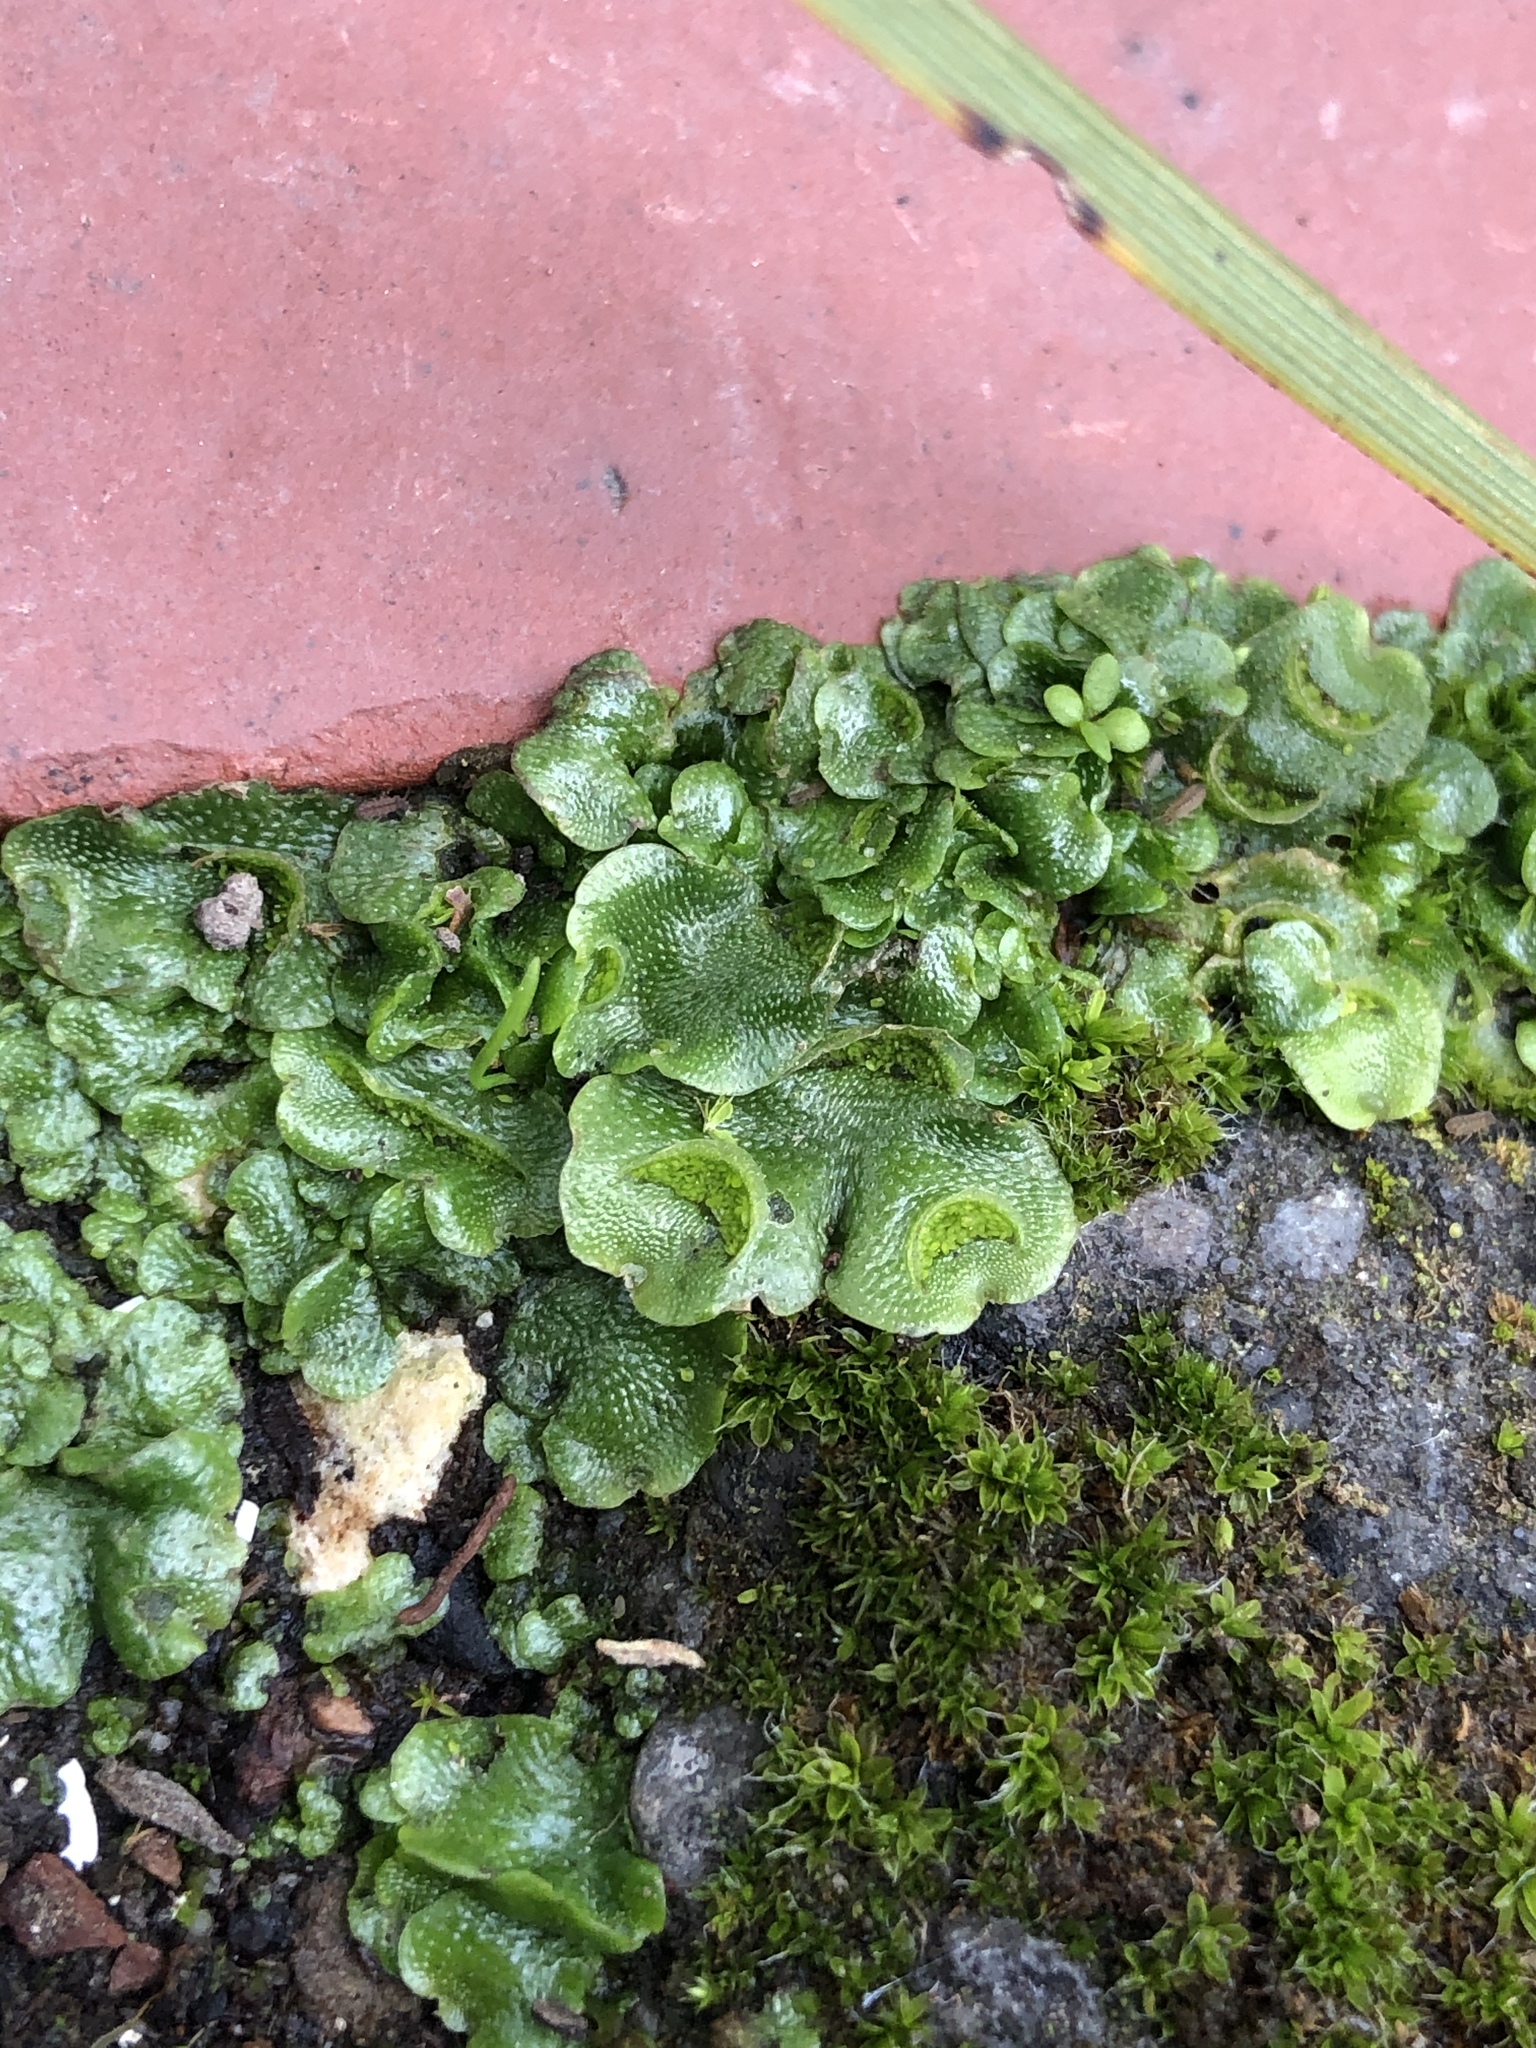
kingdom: Plantae
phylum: Marchantiophyta
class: Marchantiopsida
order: Lunulariales
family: Lunulariaceae
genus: Lunularia
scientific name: Lunularia cruciata
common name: Crescent-cup liverwort
